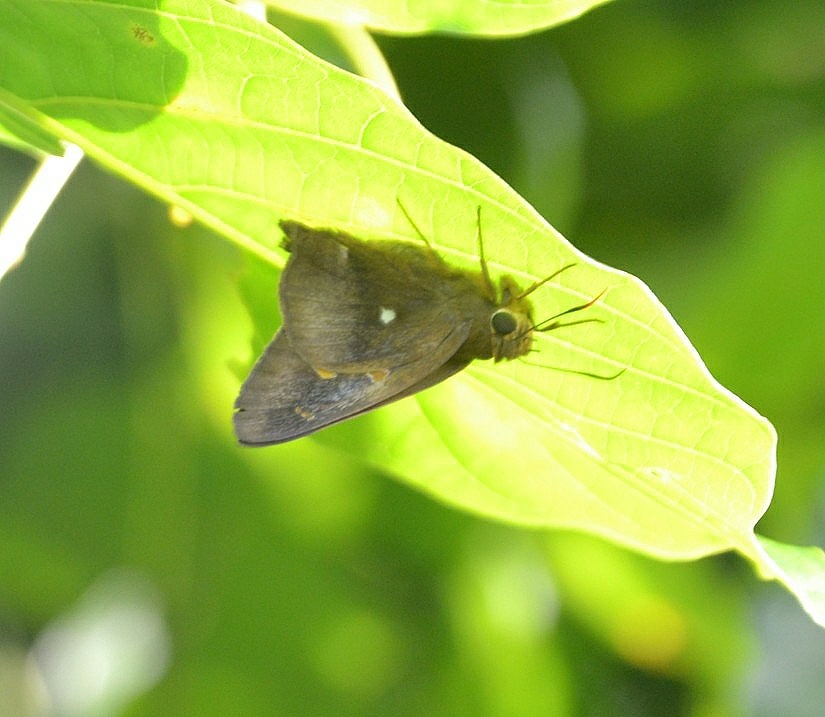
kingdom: Animalia
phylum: Arthropoda
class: Insecta
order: Lepidoptera
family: Hesperiidae
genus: Hasora
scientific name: Hasora badra
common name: Common awl
